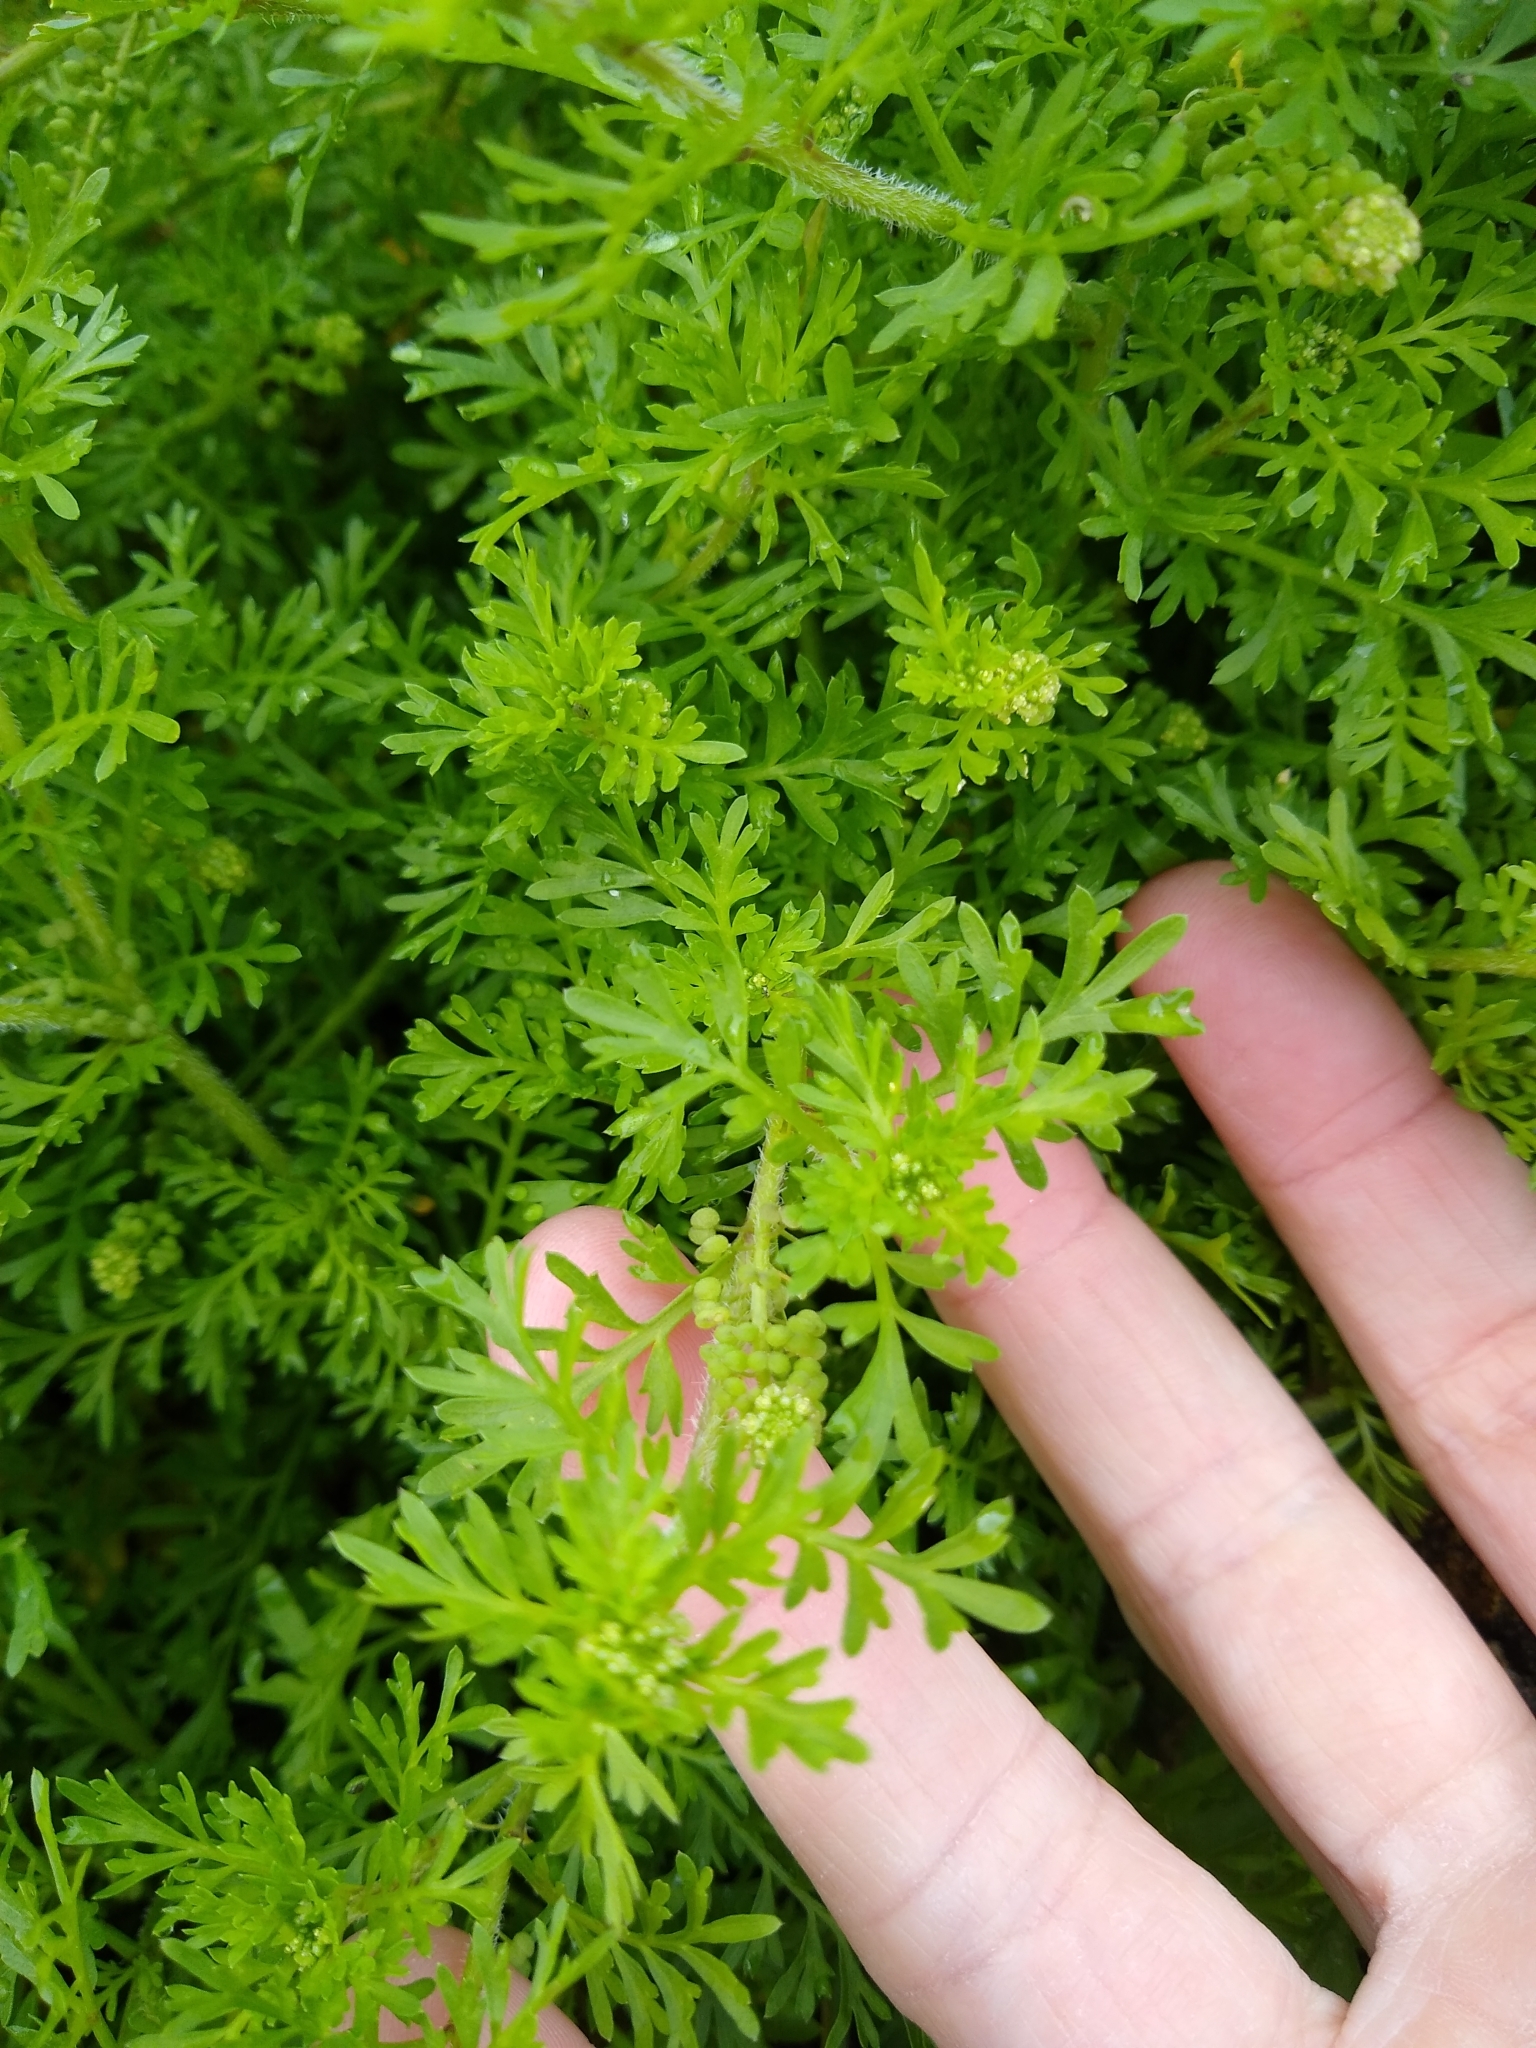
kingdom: Plantae
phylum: Tracheophyta
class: Magnoliopsida
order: Brassicales
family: Brassicaceae
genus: Lepidium
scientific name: Lepidium didymum
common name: Lesser swinecress
